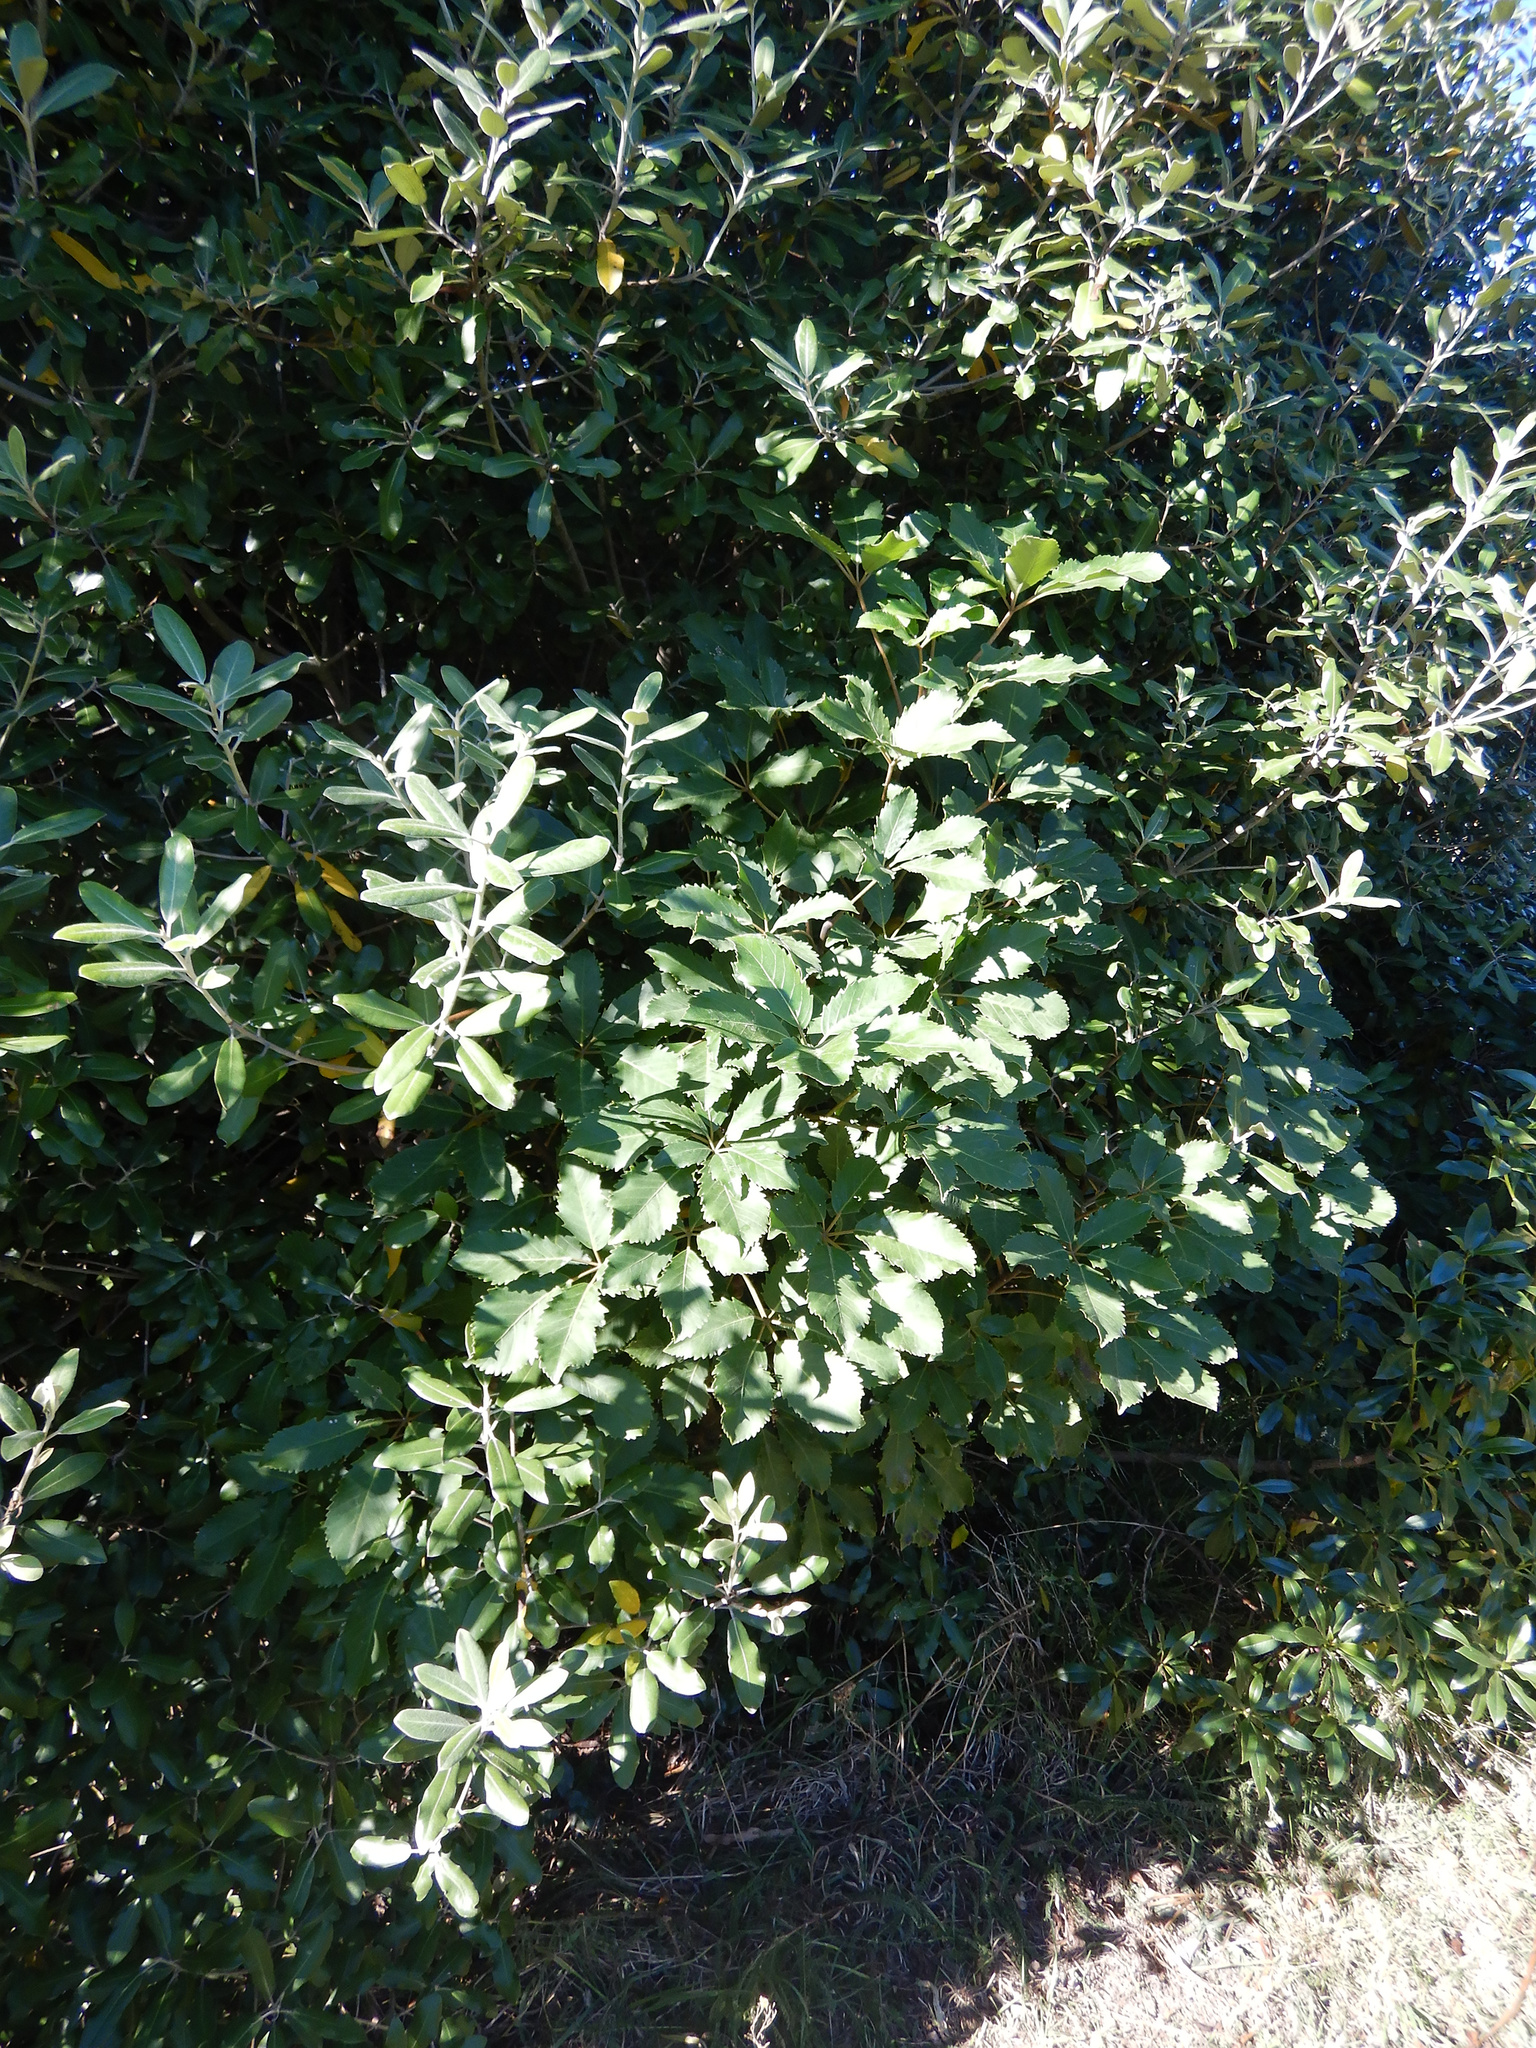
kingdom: Plantae
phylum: Tracheophyta
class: Magnoliopsida
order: Apiales
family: Araliaceae
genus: Neopanax
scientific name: Neopanax arboreus
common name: Five-fingers
